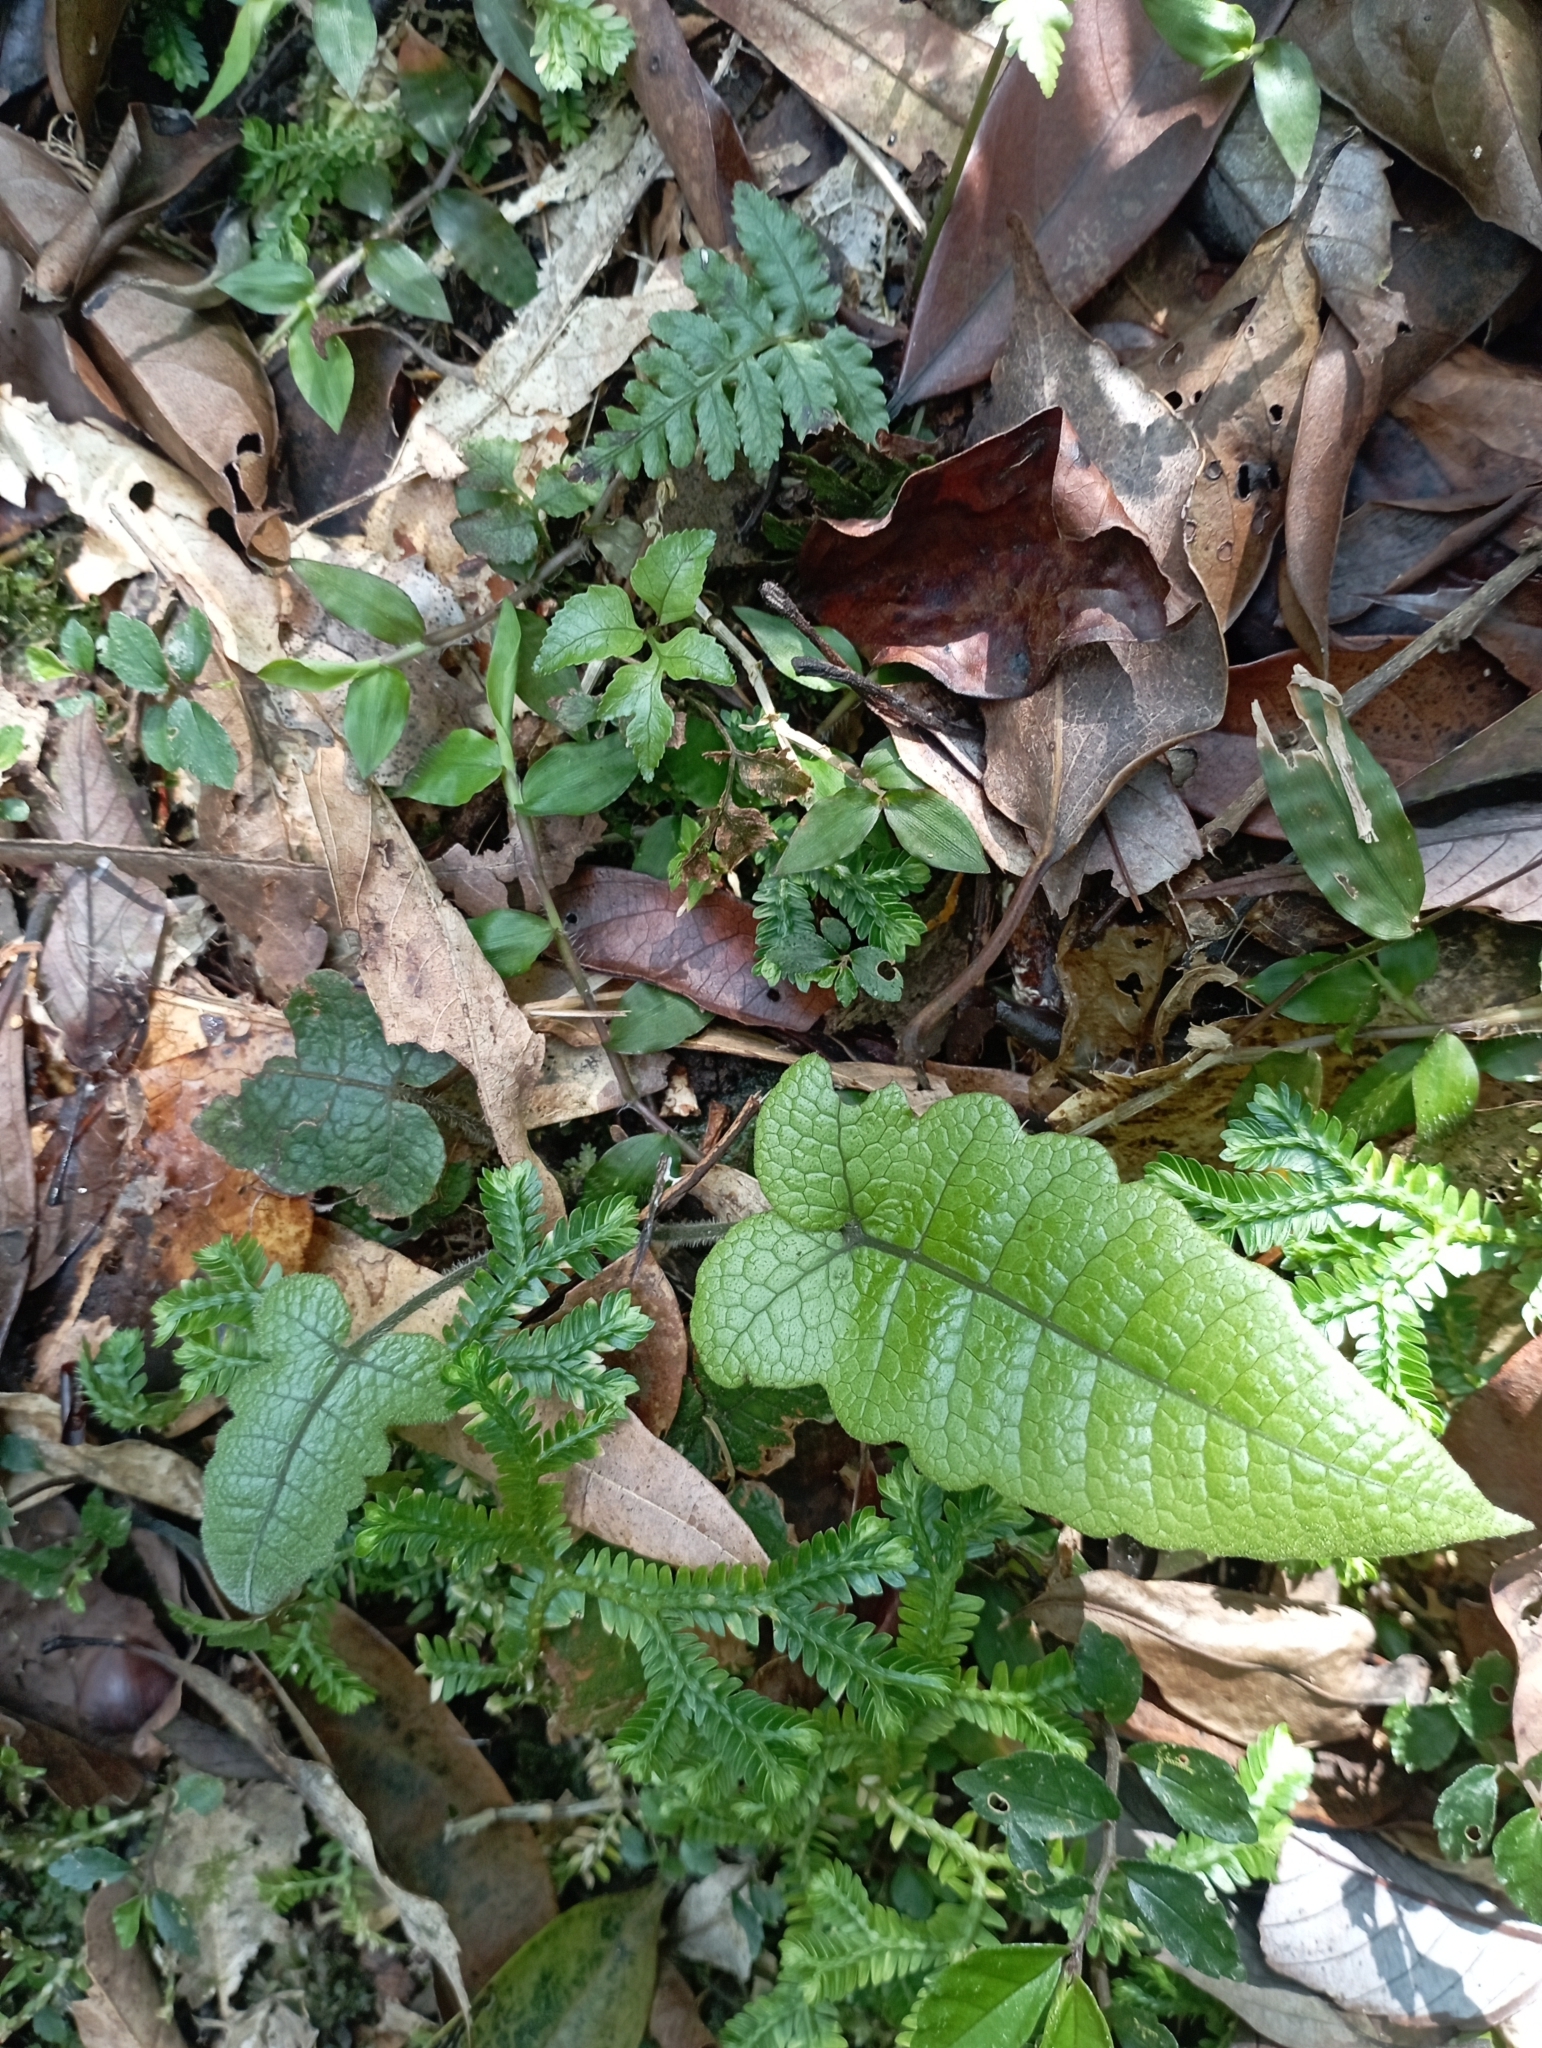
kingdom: Plantae
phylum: Tracheophyta
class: Polypodiopsida
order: Polypodiales
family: Thelypteridaceae
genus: Stegnogramma
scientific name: Stegnogramma wilfordii
